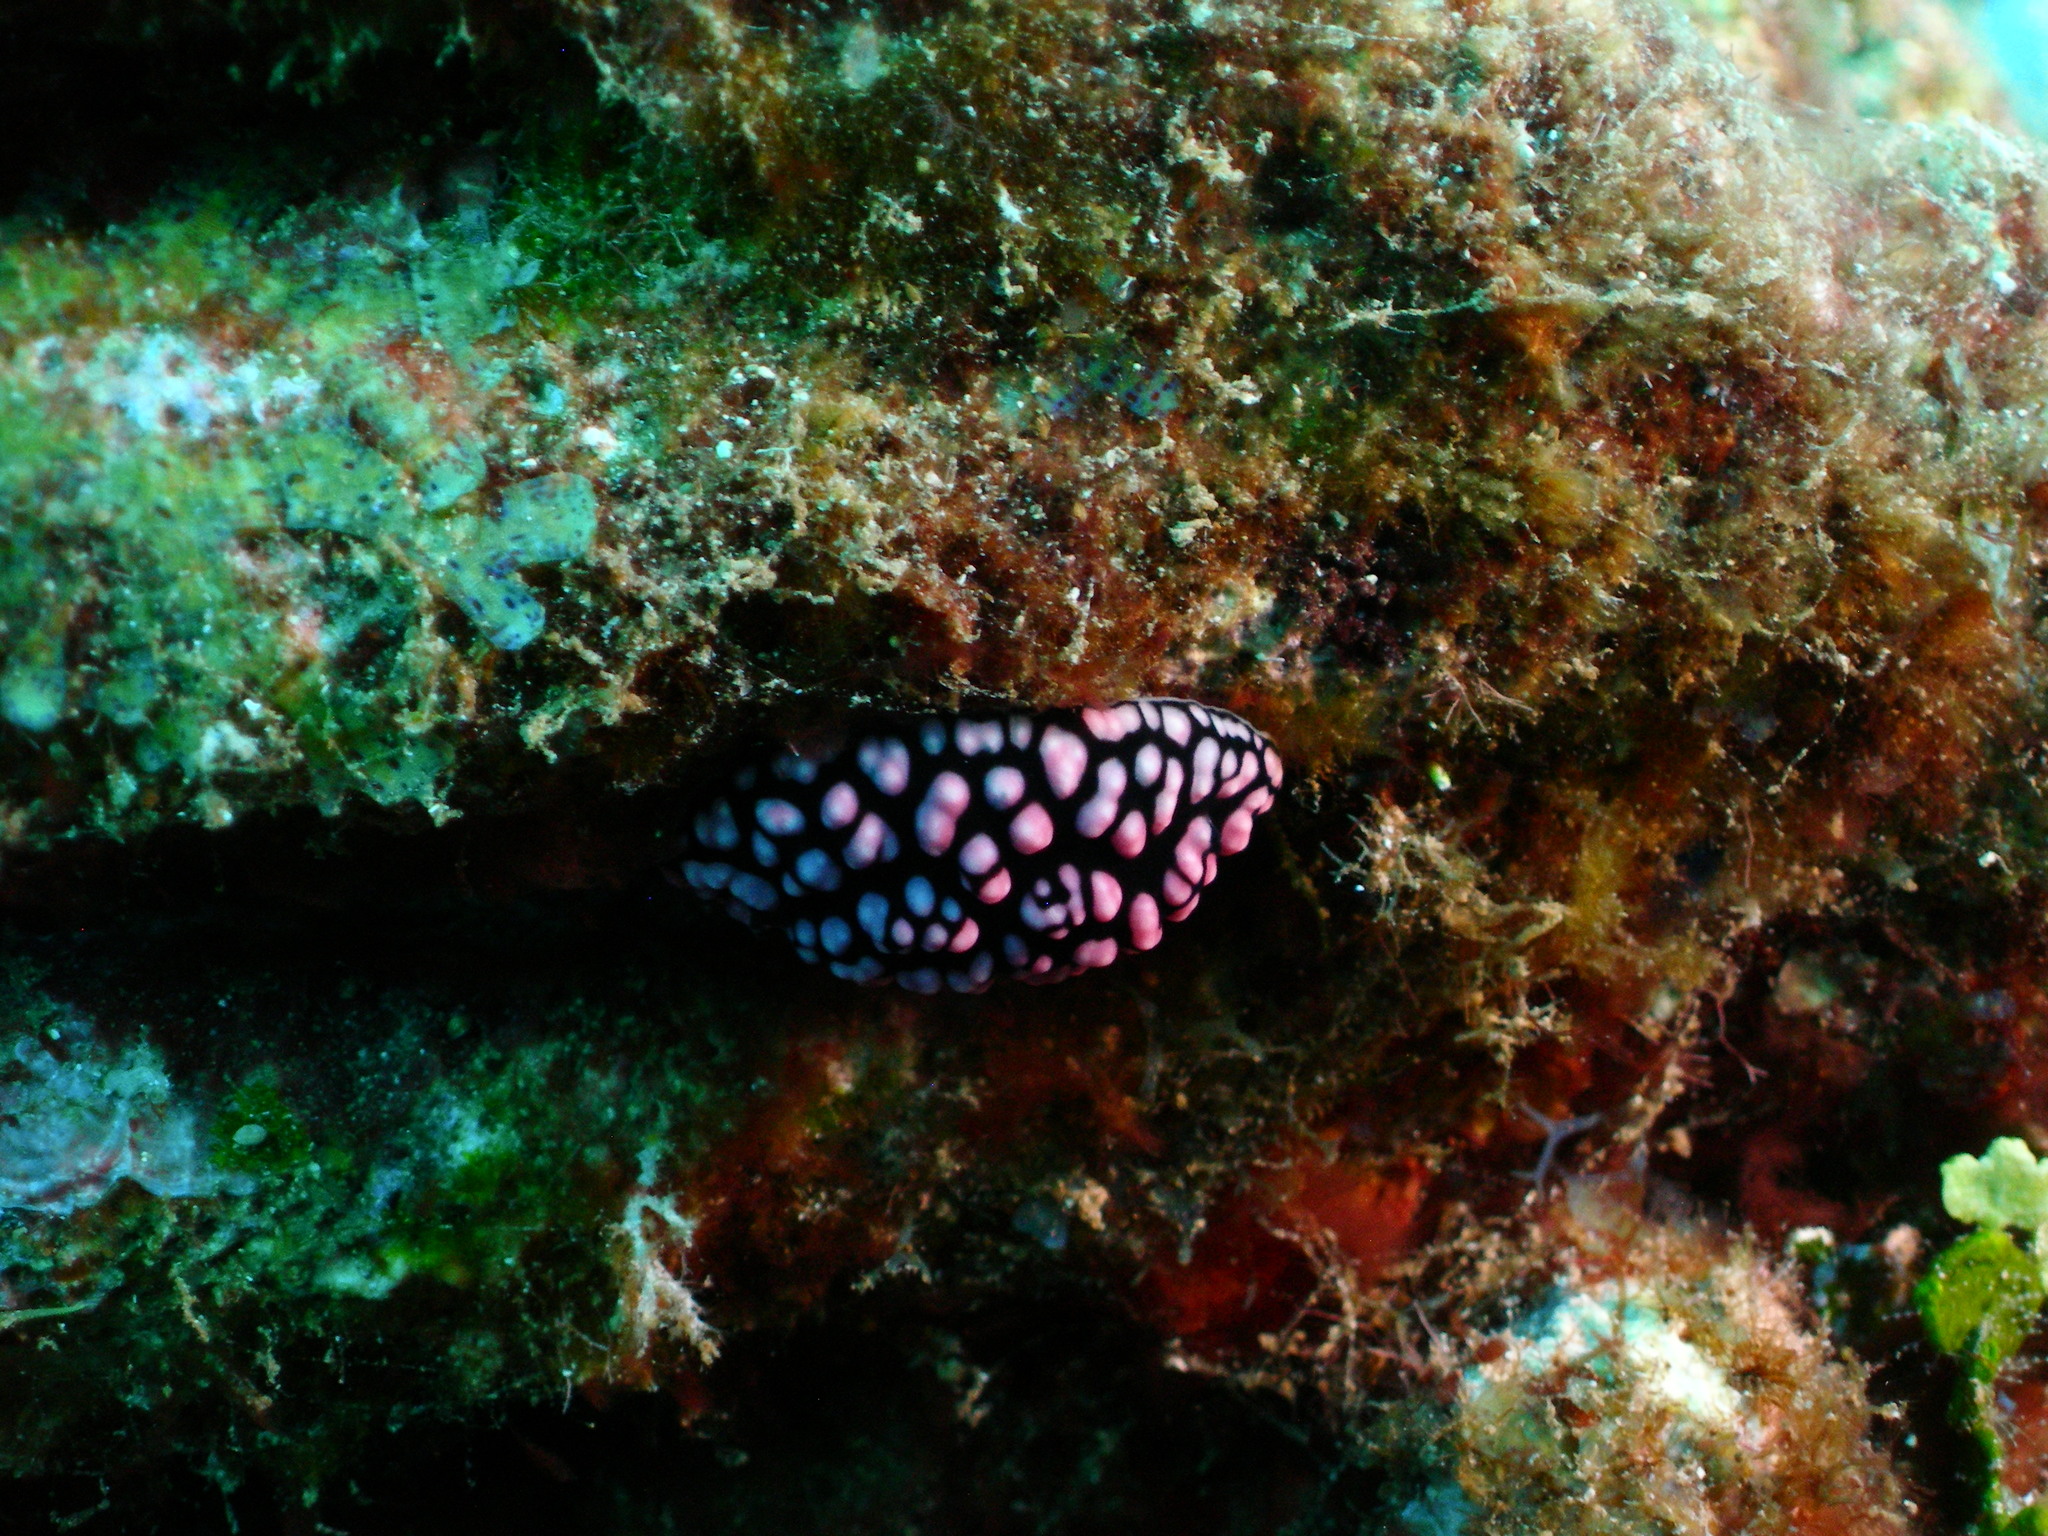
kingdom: Animalia
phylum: Mollusca
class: Gastropoda
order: Nudibranchia
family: Phyllidiidae
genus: Phyllidiella
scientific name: Phyllidiella pustulosa
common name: Pustular phyllidia
